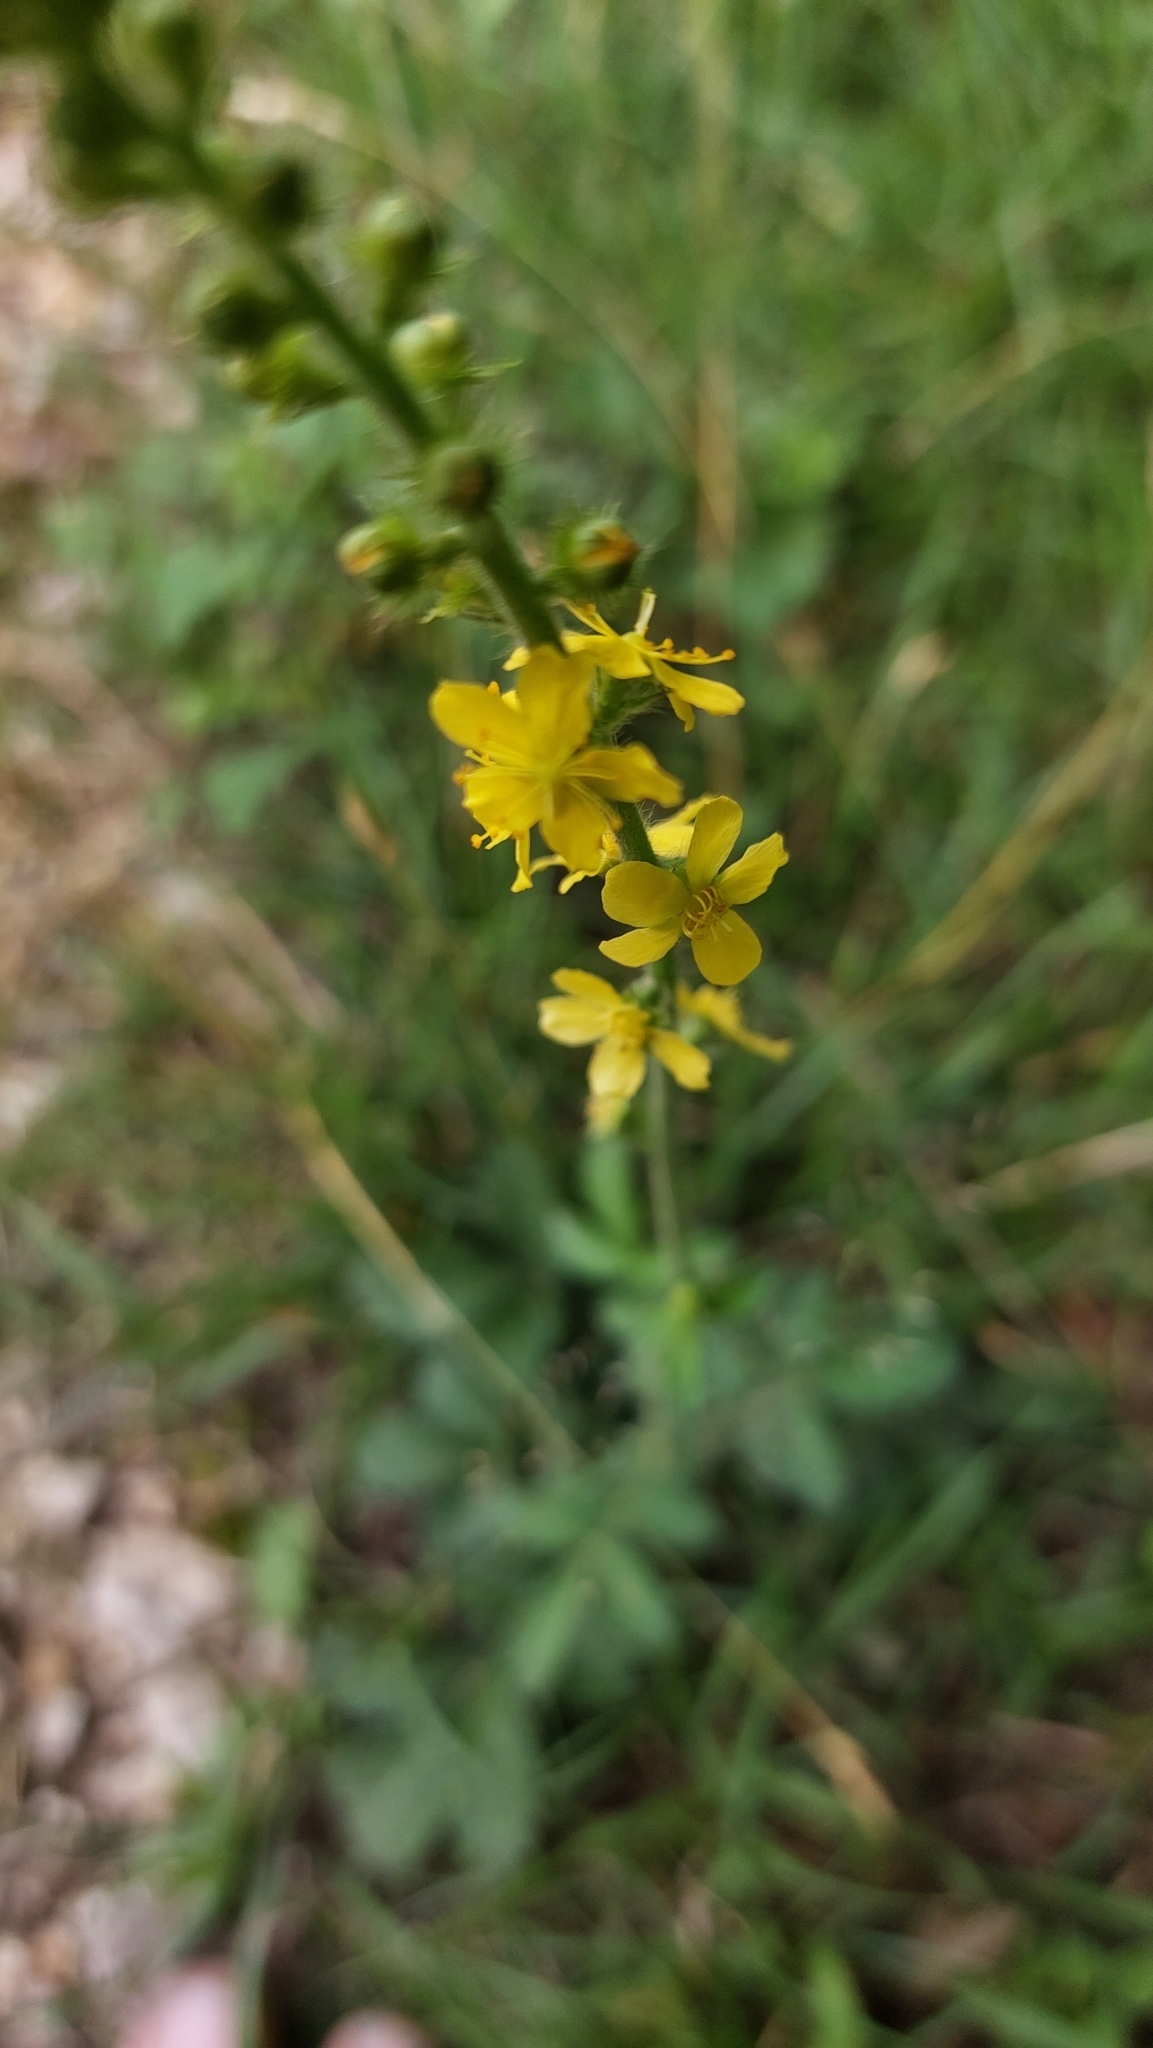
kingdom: Plantae
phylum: Tracheophyta
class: Magnoliopsida
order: Rosales
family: Rosaceae
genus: Agrimonia
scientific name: Agrimonia eupatoria
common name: Agrimony
